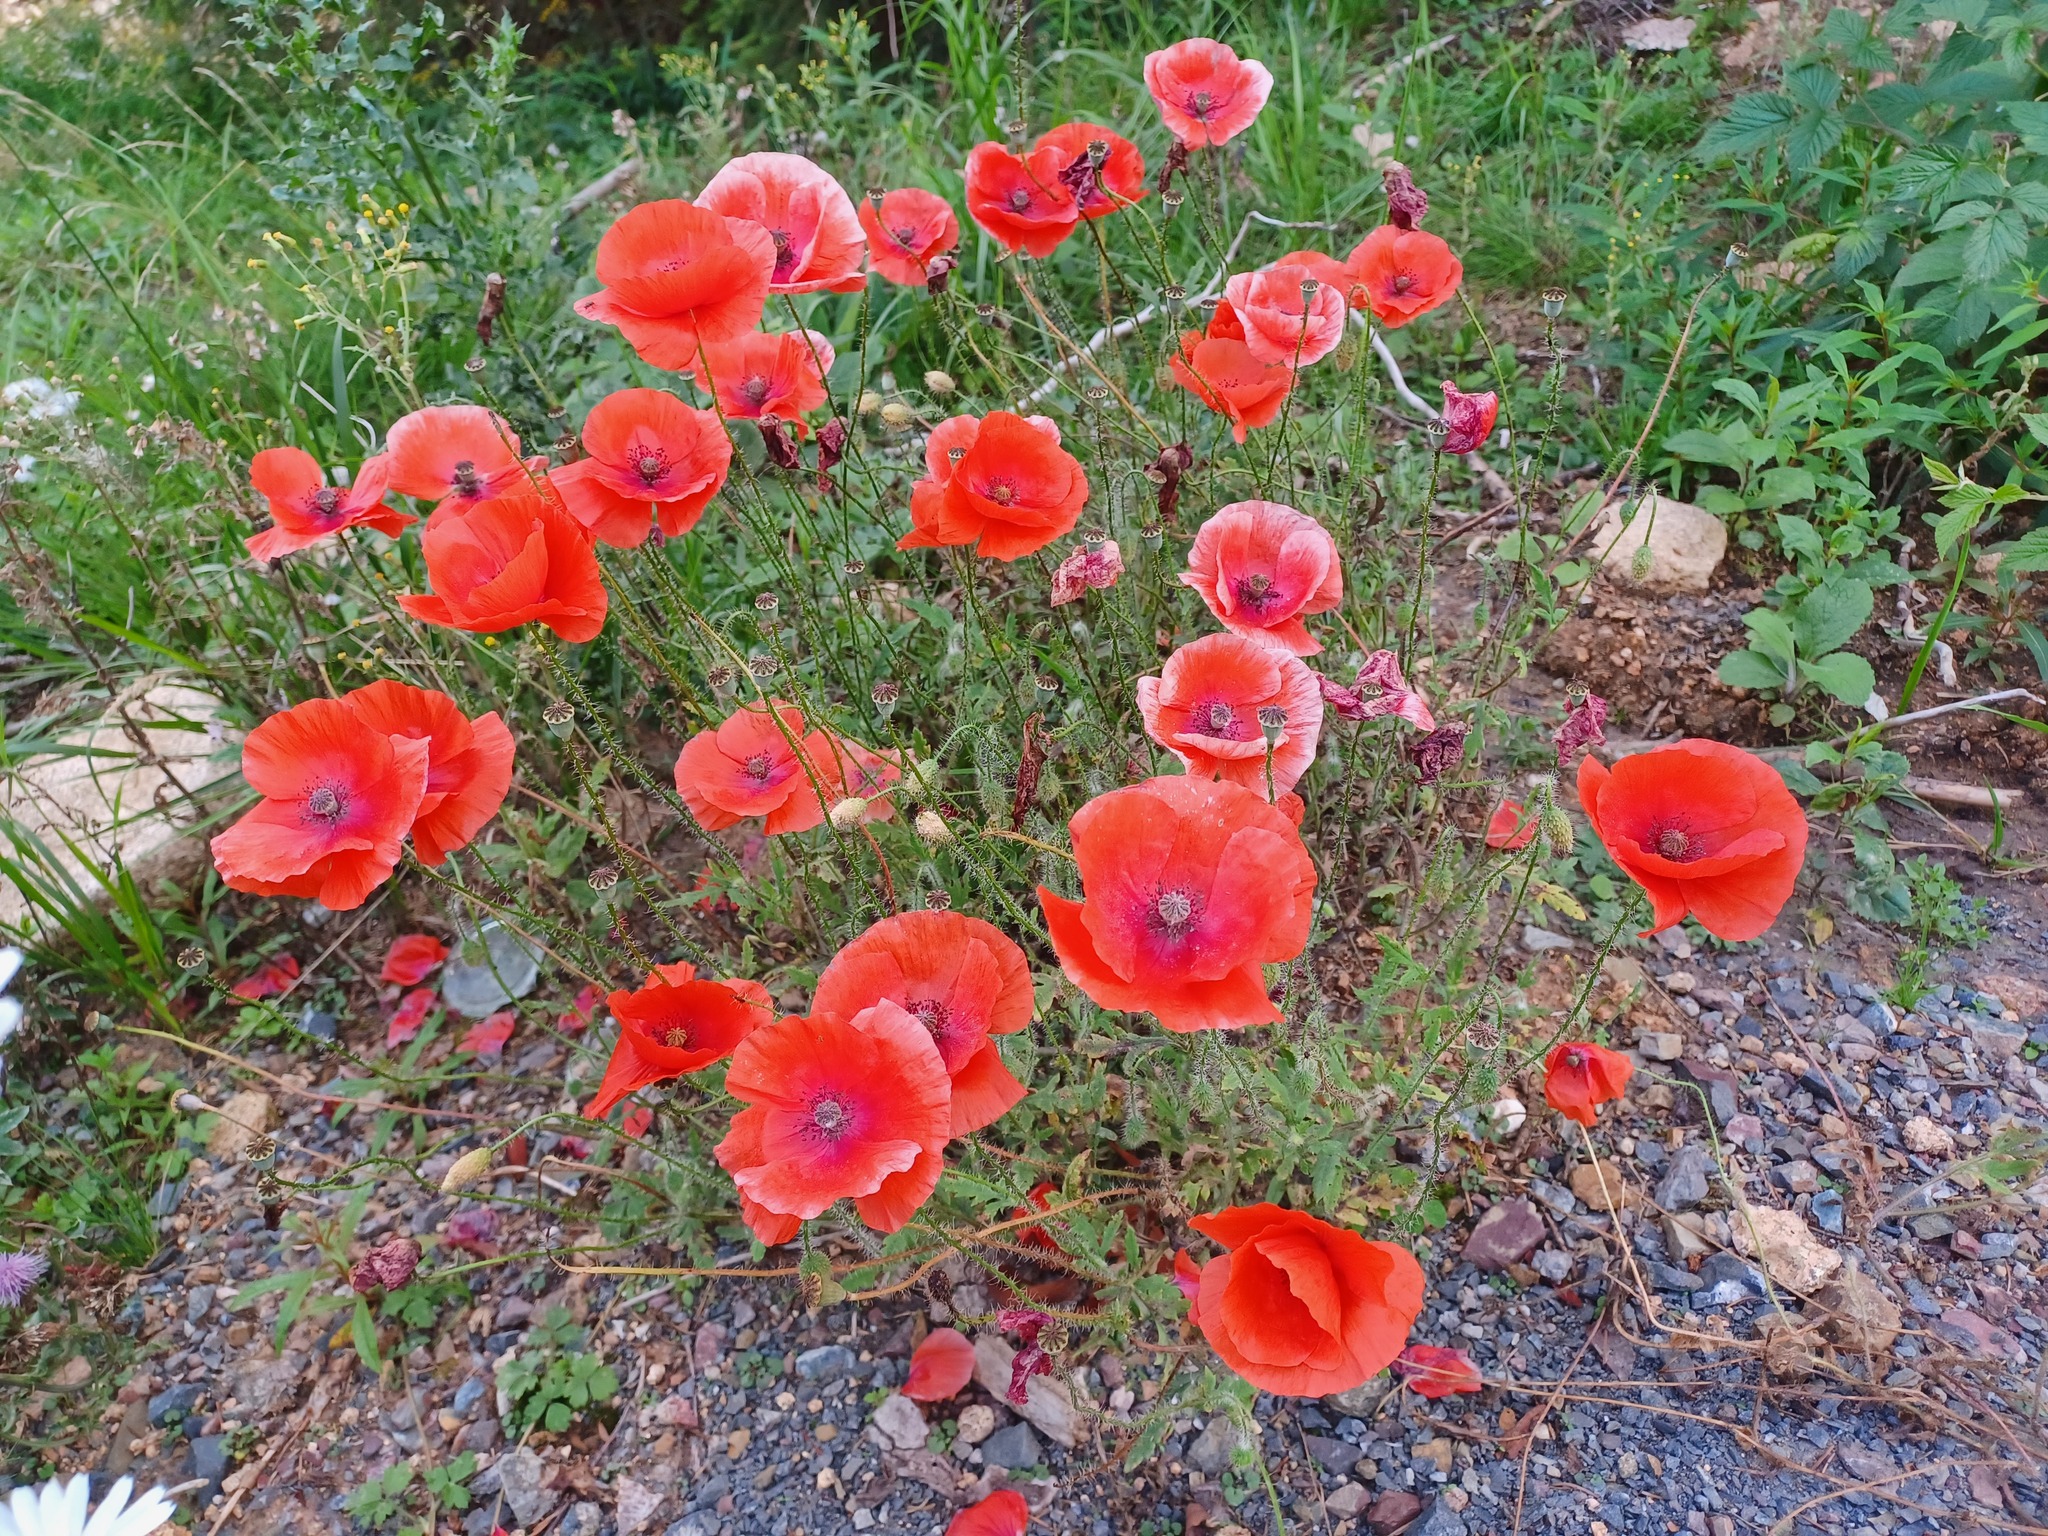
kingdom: Plantae
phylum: Tracheophyta
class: Magnoliopsida
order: Ranunculales
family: Papaveraceae
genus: Papaver
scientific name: Papaver rhoeas
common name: Corn poppy
